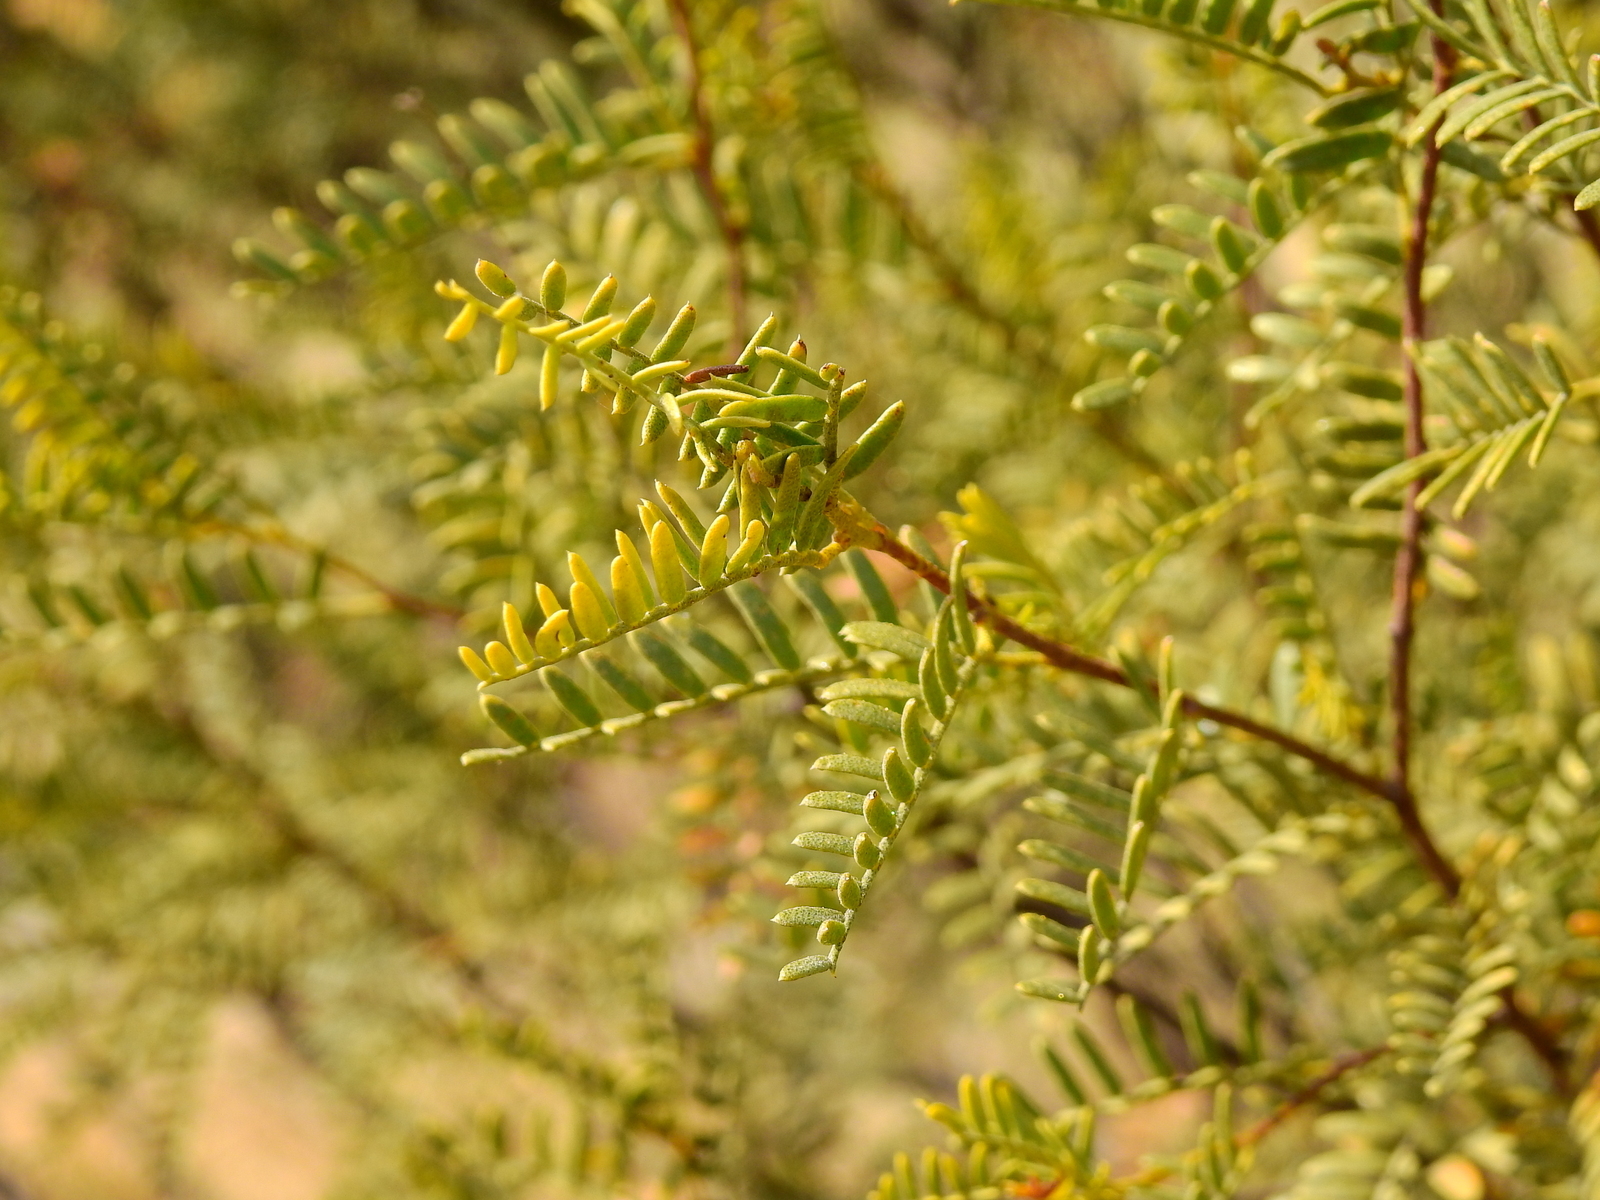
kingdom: Plantae
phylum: Tracheophyta
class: Magnoliopsida
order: Fabales
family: Fabaceae
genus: Zuccagnia
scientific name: Zuccagnia punctata
